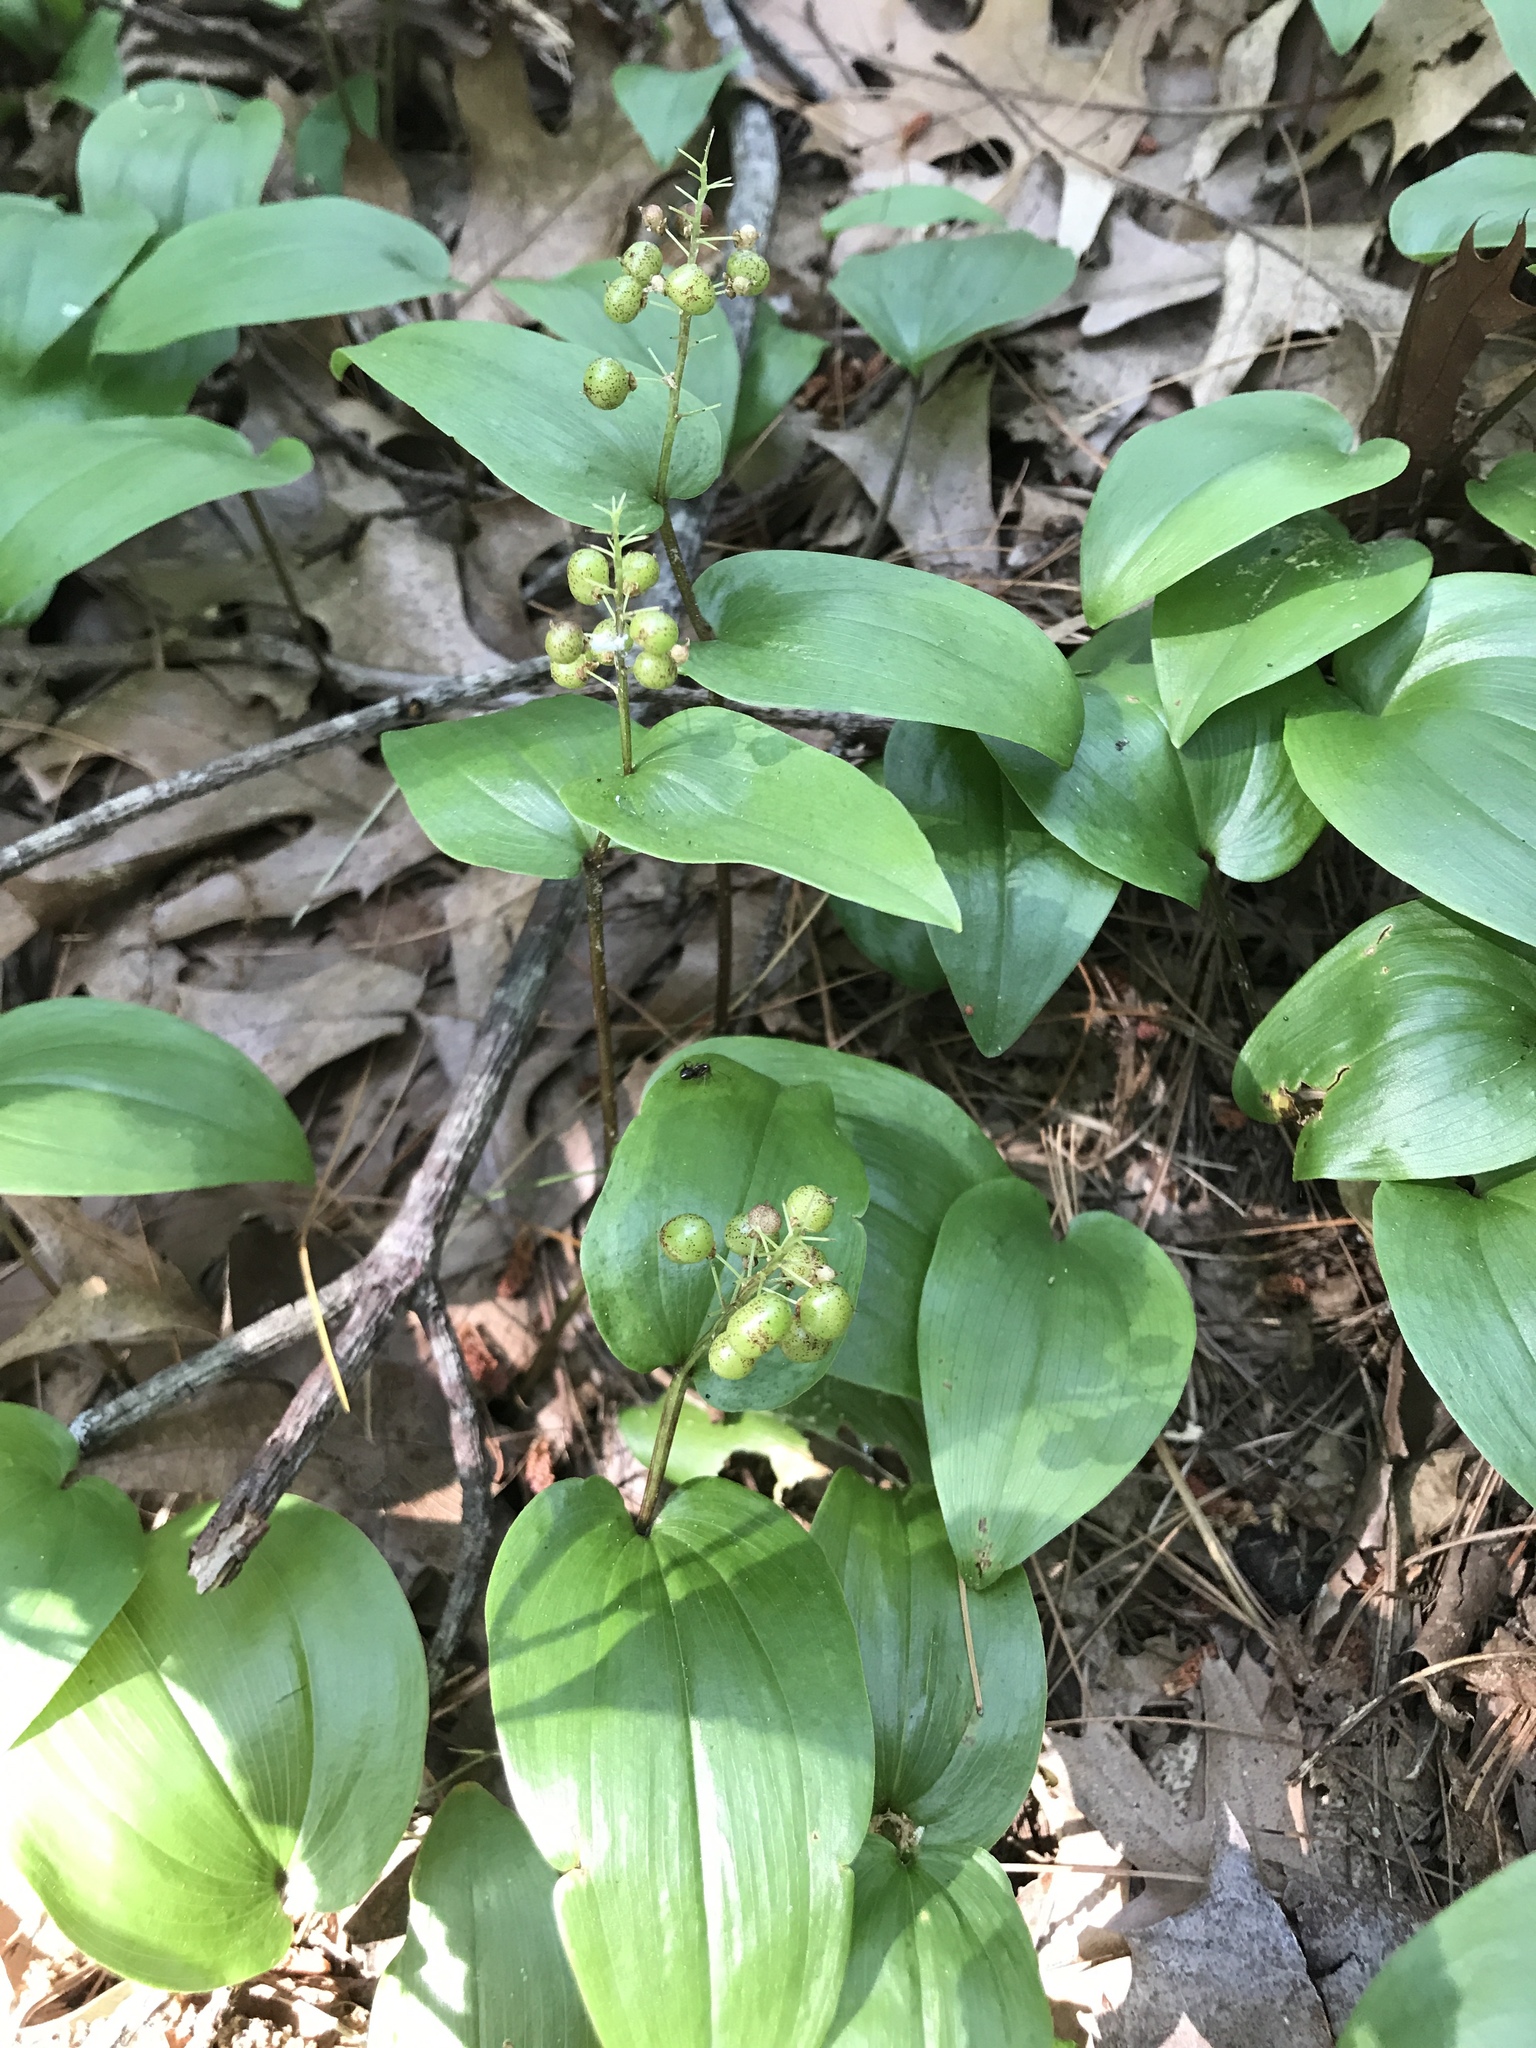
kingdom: Plantae
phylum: Tracheophyta
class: Liliopsida
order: Asparagales
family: Asparagaceae
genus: Maianthemum
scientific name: Maianthemum canadense
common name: False lily-of-the-valley
